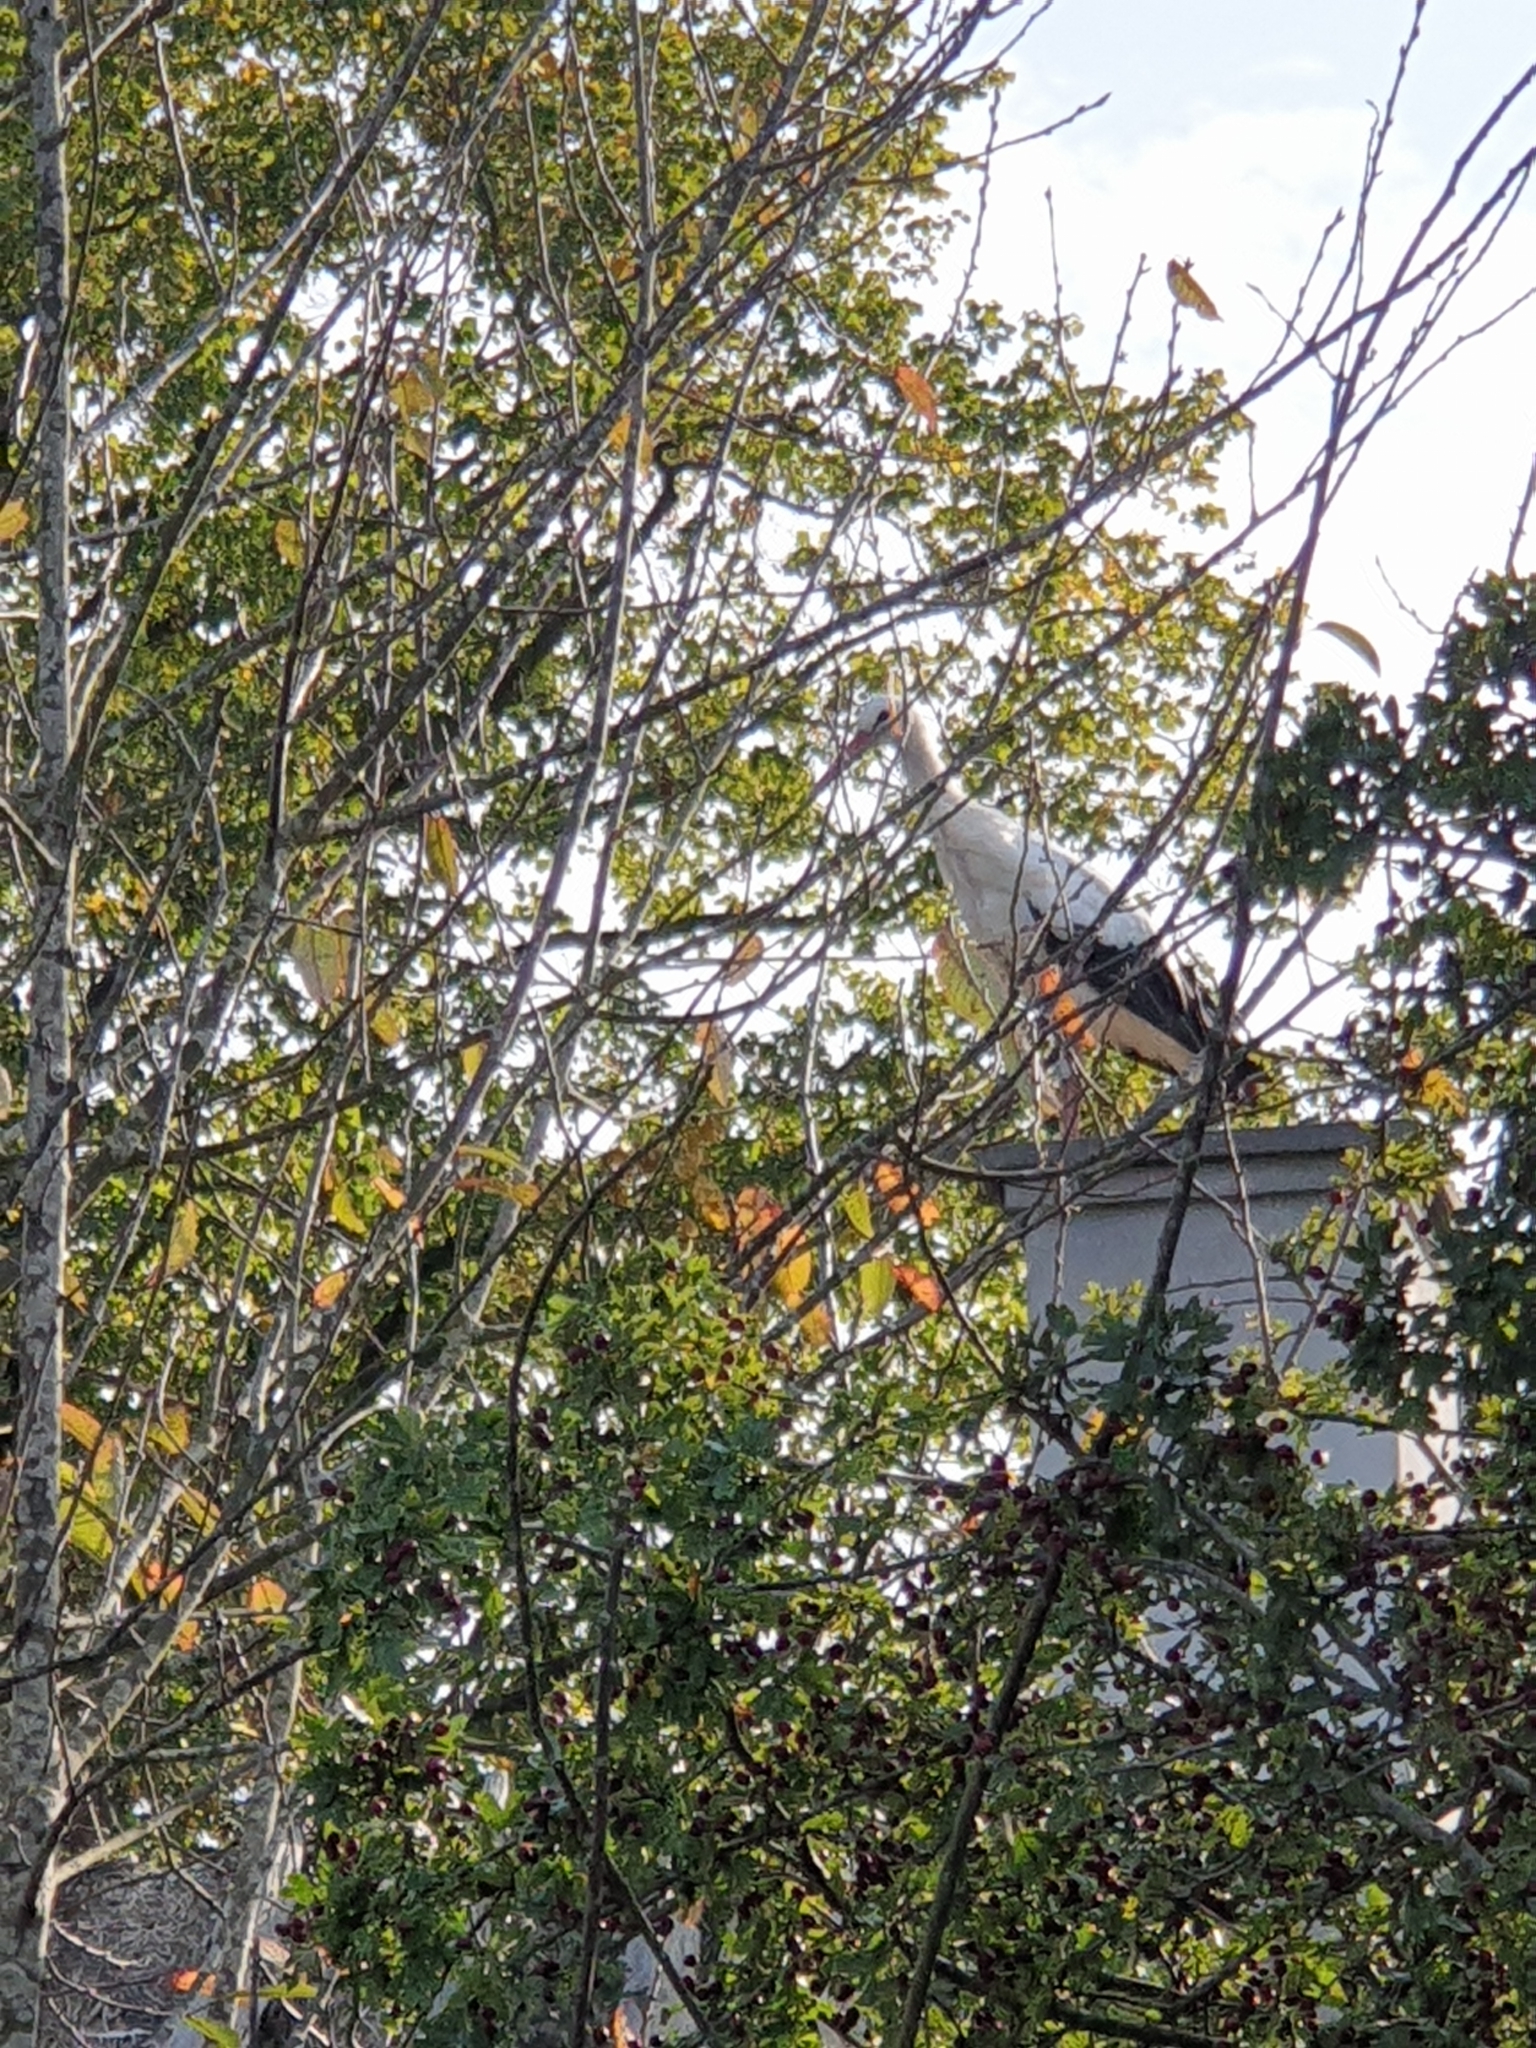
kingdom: Animalia
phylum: Chordata
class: Aves
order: Ciconiiformes
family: Ciconiidae
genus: Ciconia
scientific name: Ciconia ciconia
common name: White stork
